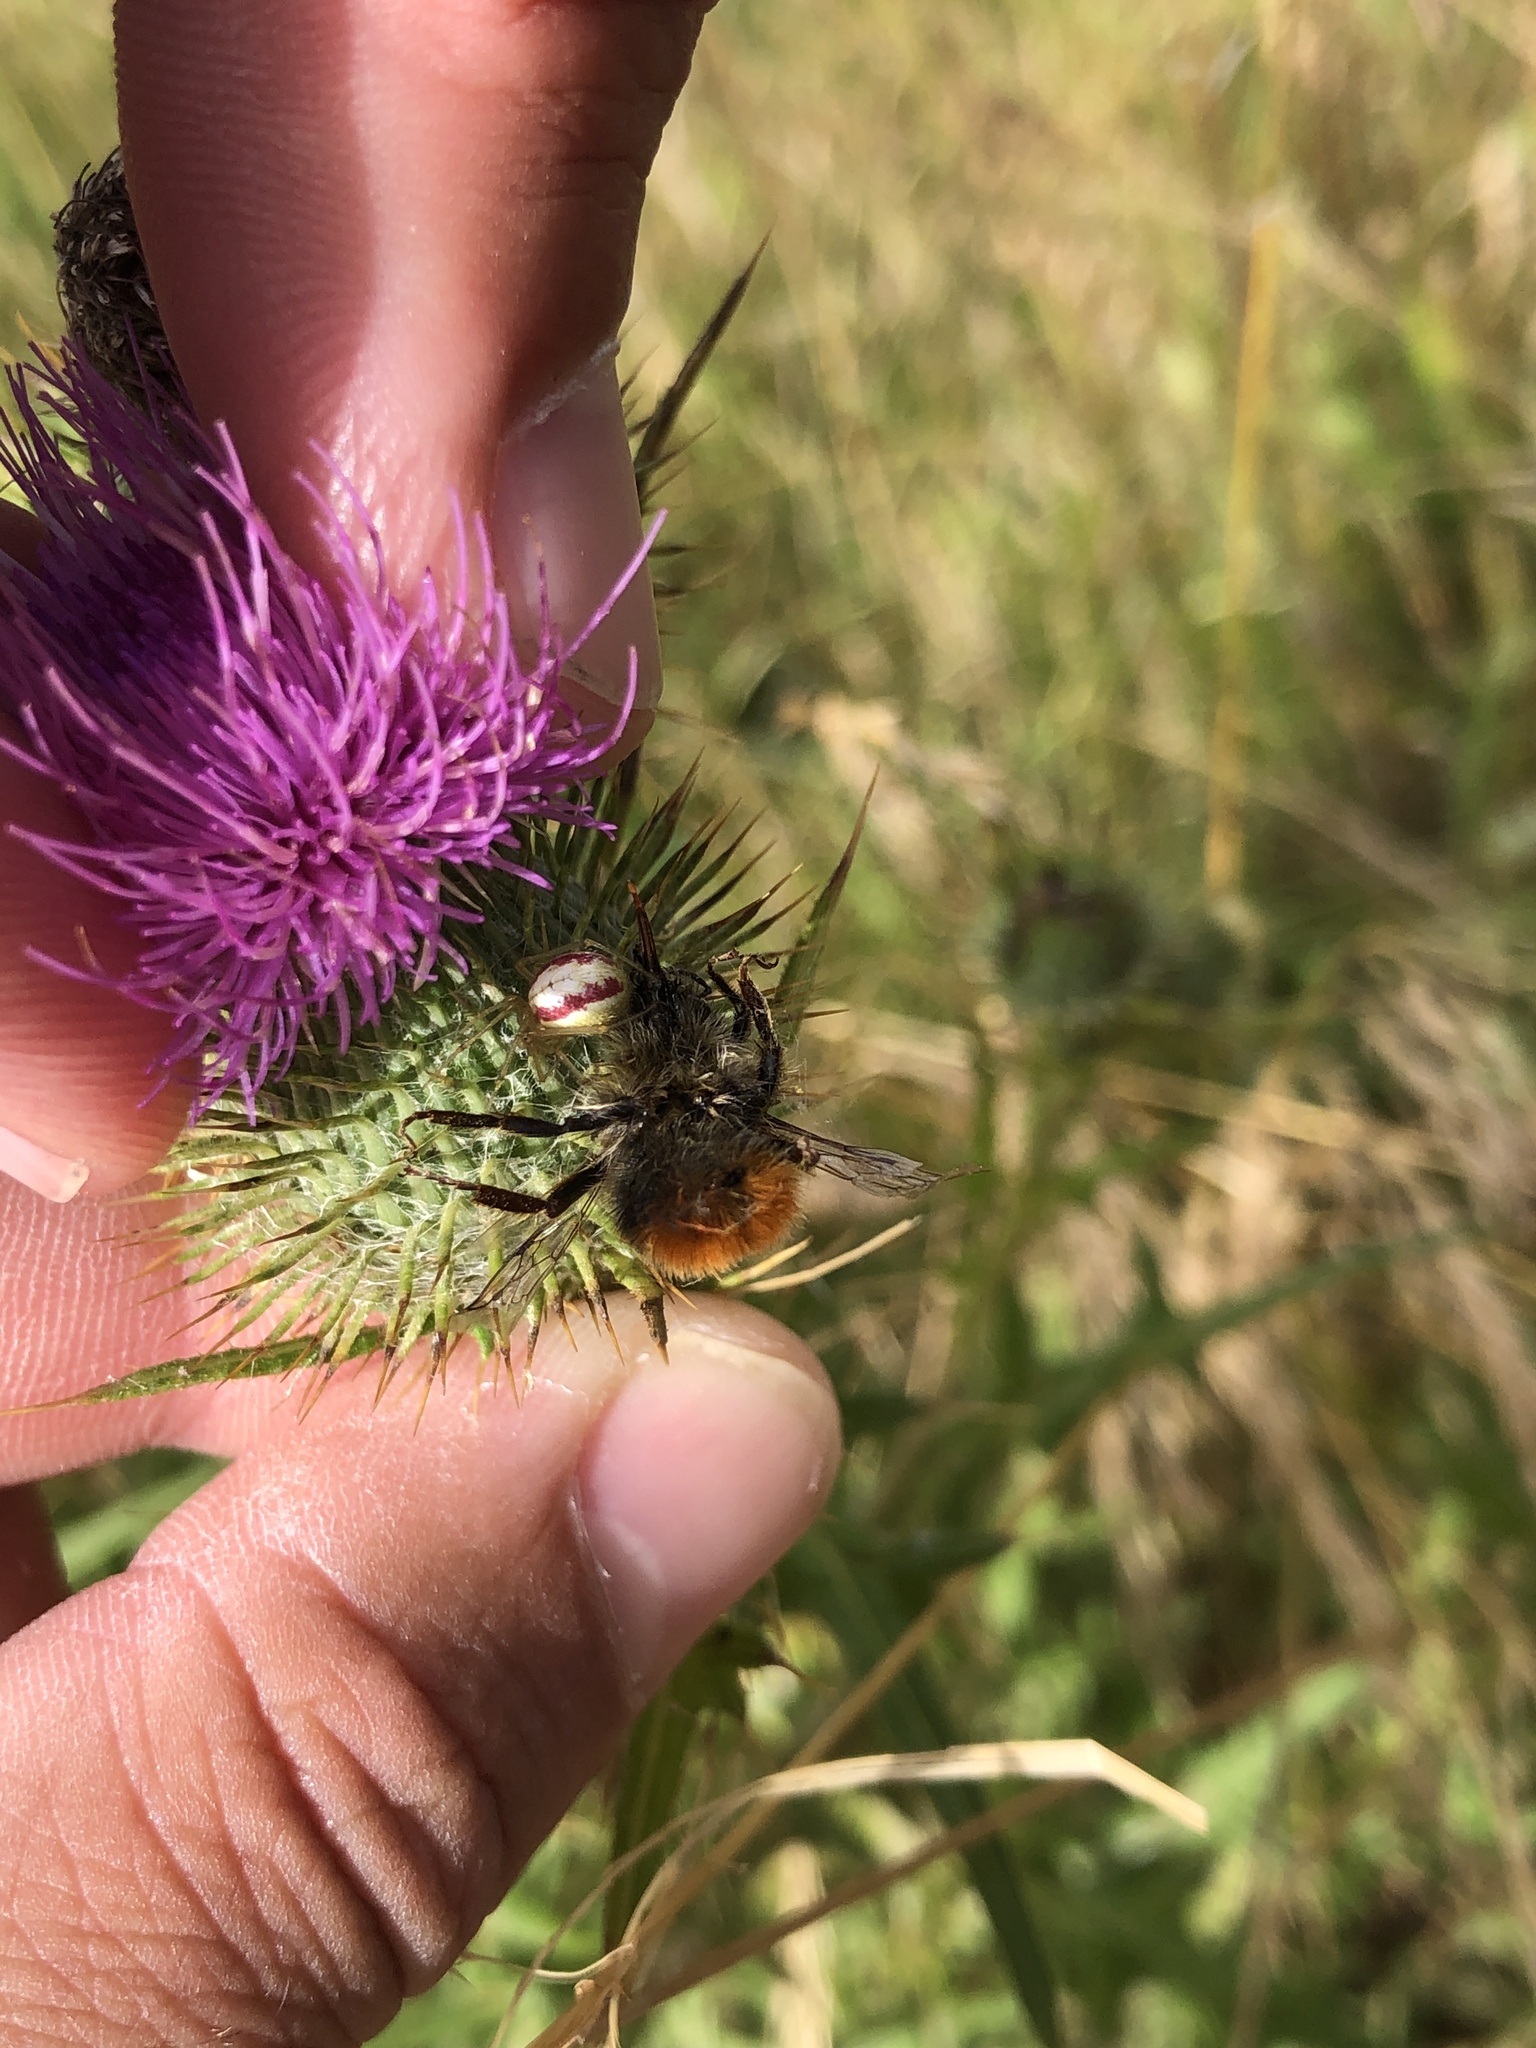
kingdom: Animalia
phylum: Arthropoda
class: Insecta
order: Hymenoptera
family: Apidae
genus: Bombus
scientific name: Bombus lapidarius
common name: Large red-tailed humble-bee
